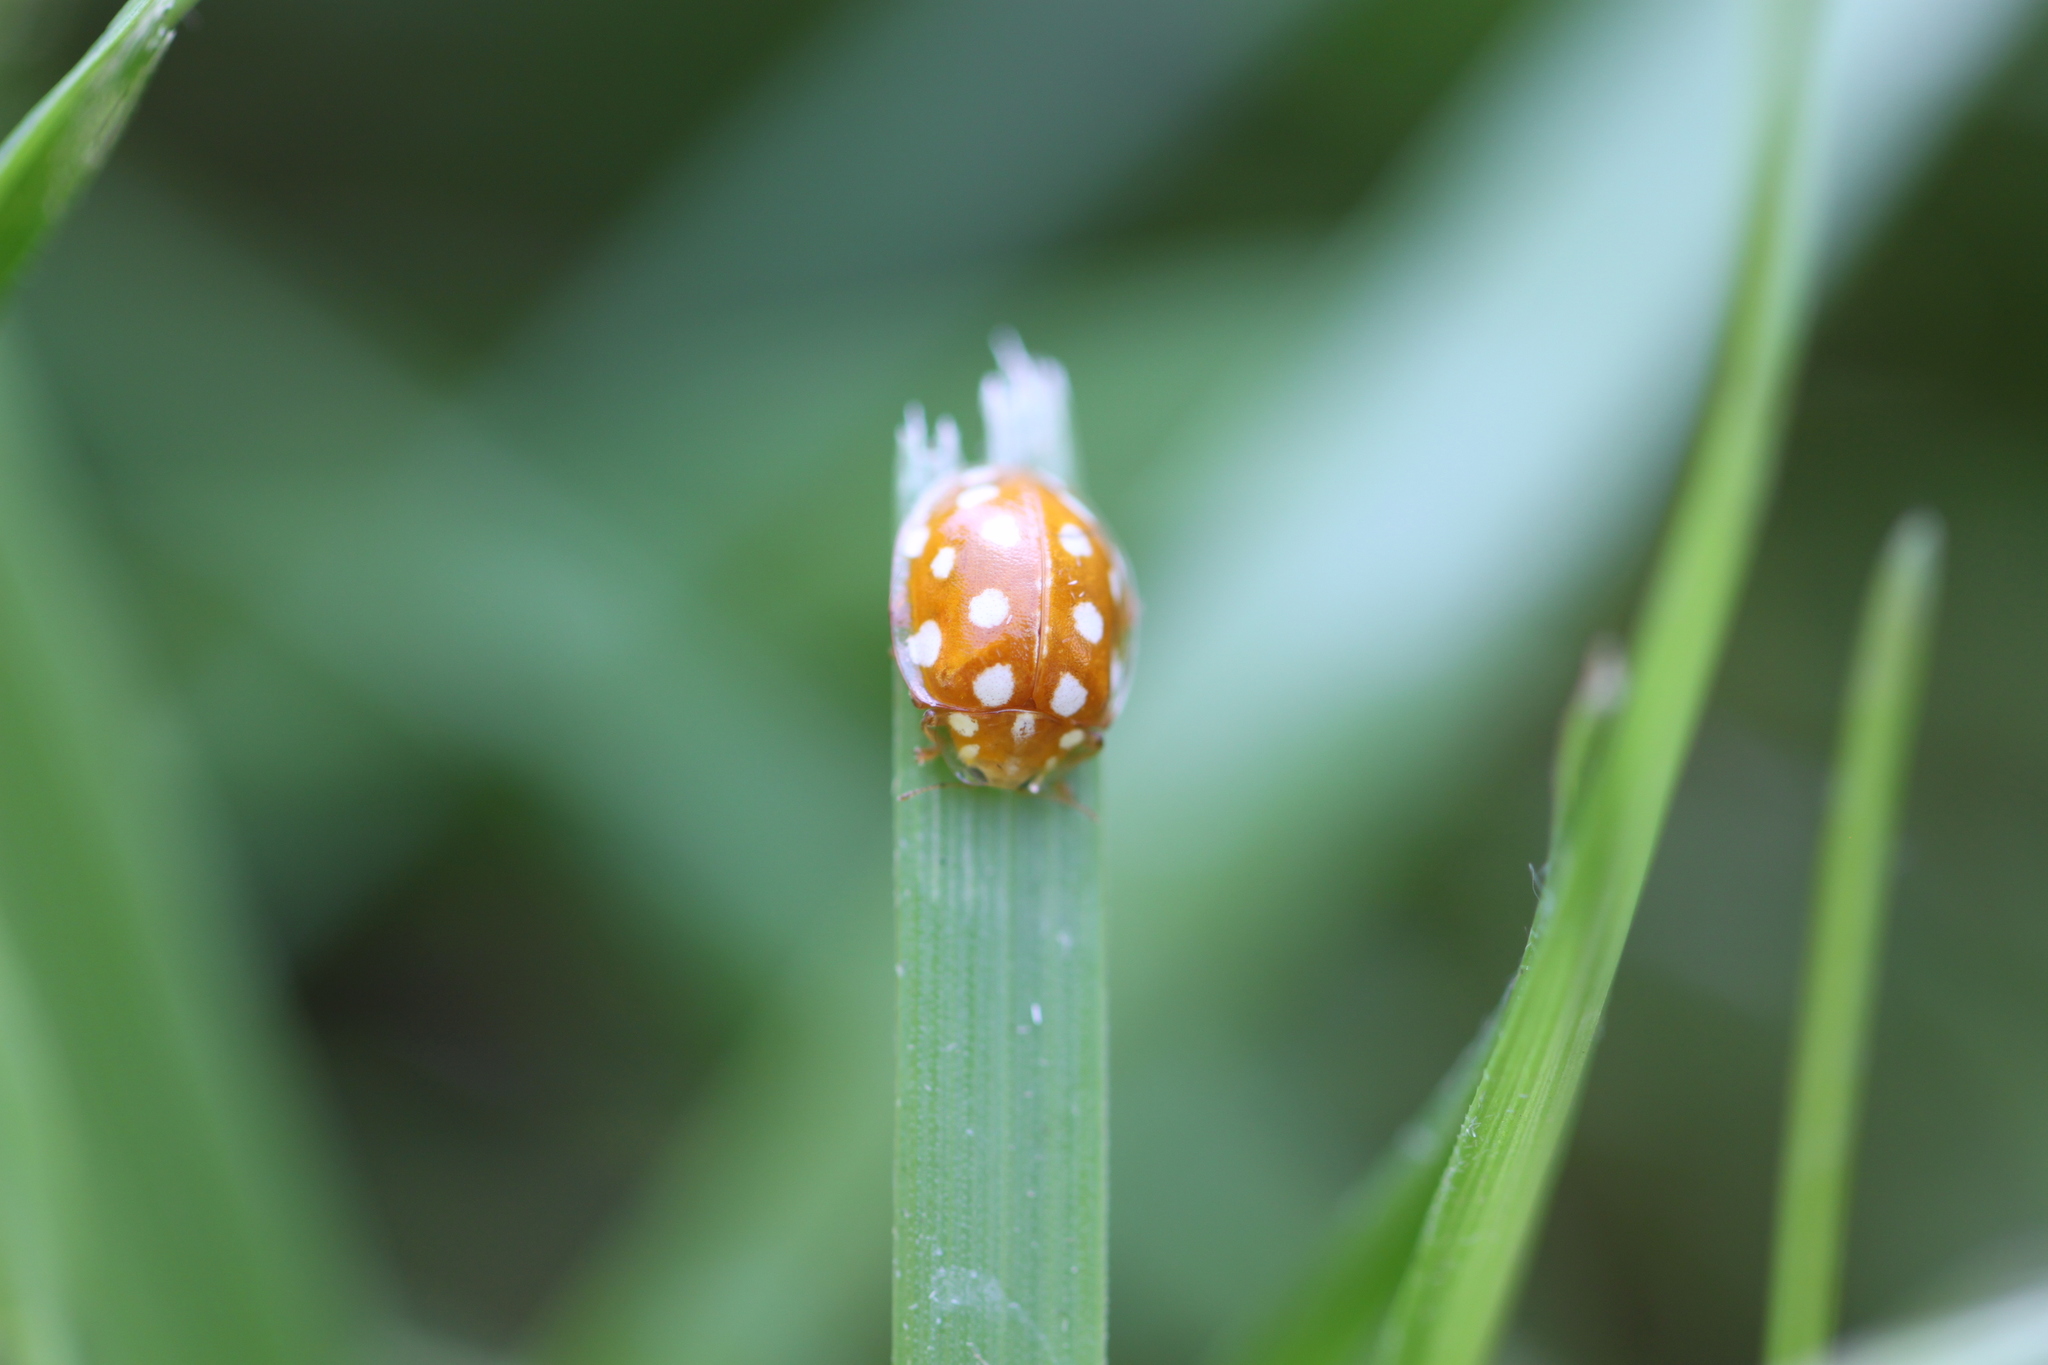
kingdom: Animalia
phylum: Arthropoda
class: Insecta
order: Coleoptera
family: Coccinellidae
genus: Halyzia
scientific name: Halyzia sedecimguttata
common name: Orange ladybird
